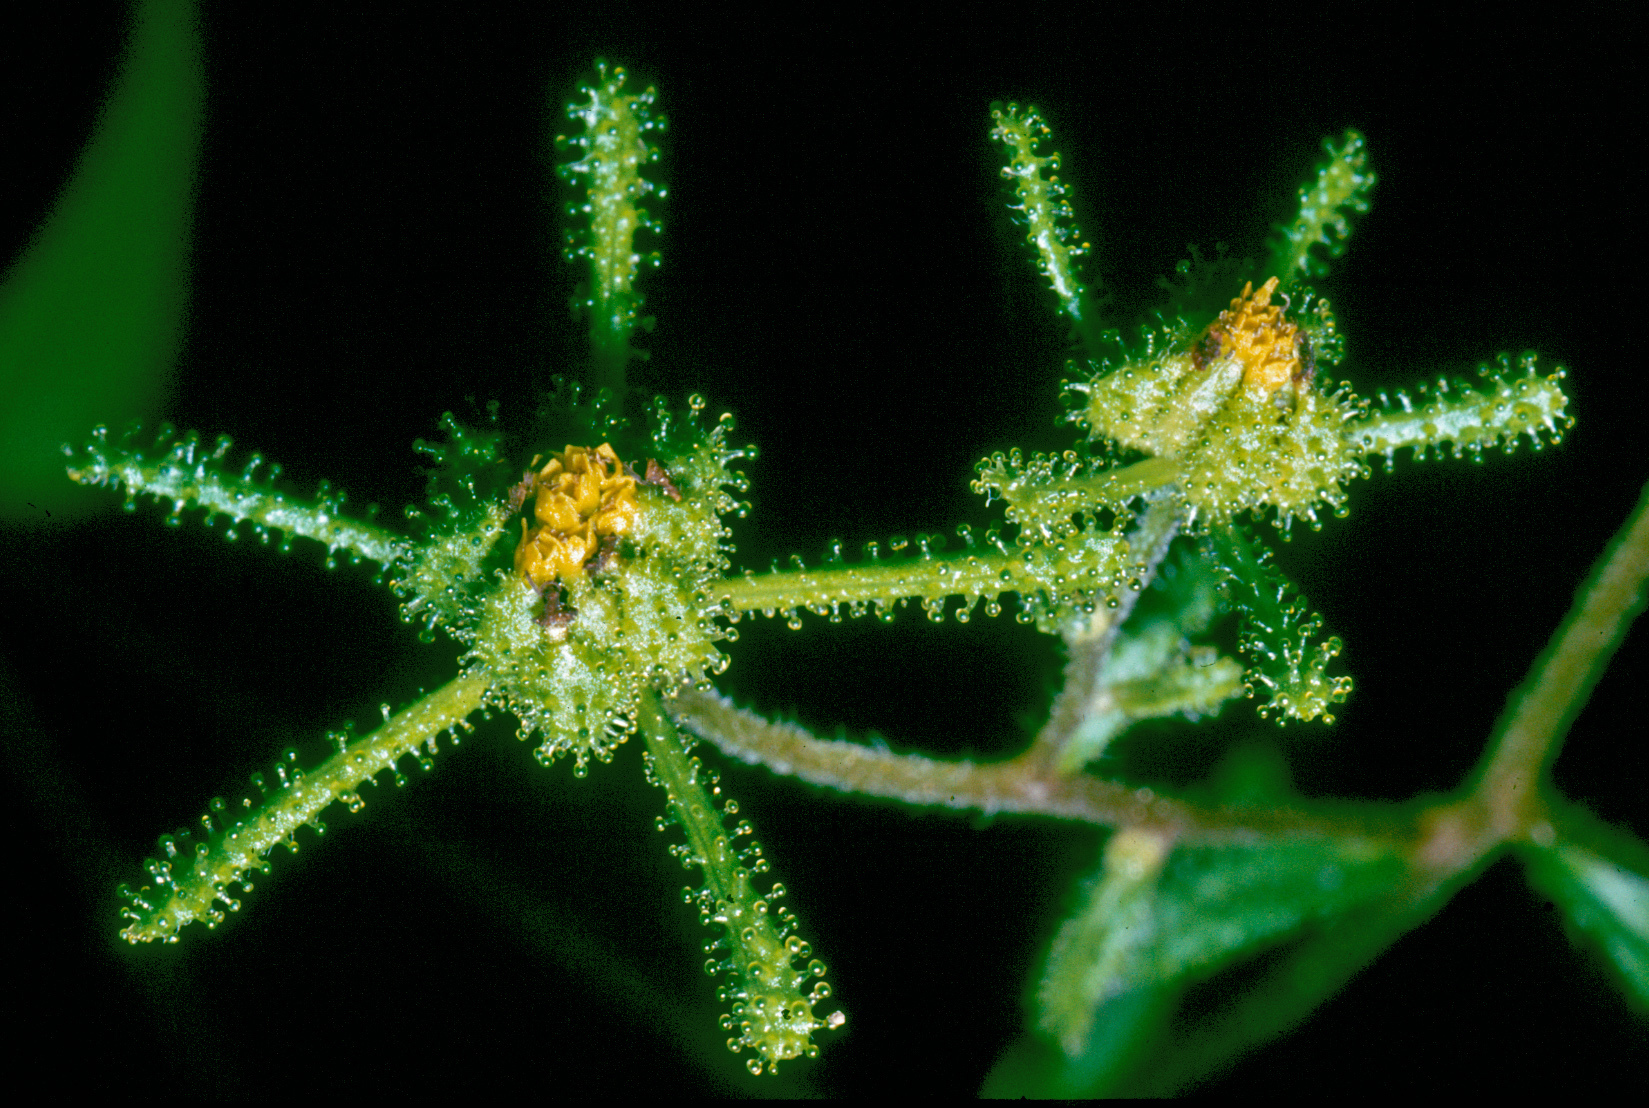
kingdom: Plantae
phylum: Tracheophyta
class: Magnoliopsida
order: Asterales
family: Asteraceae
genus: Sigesbeckia
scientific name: Sigesbeckia orientalis
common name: Eastern st paul's-wort
